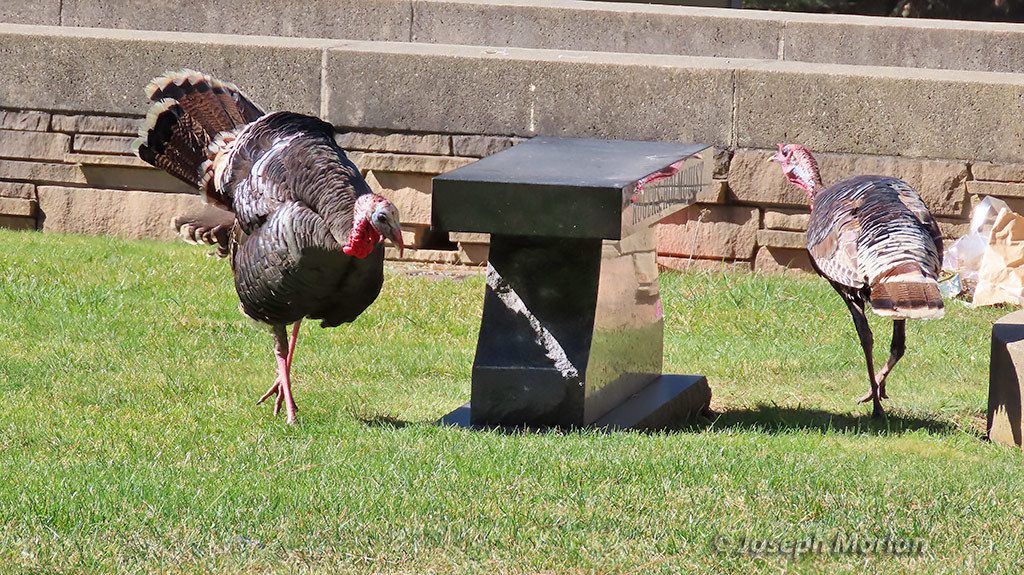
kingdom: Animalia
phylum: Chordata
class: Aves
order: Galliformes
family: Phasianidae
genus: Meleagris
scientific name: Meleagris gallopavo
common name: Wild turkey
